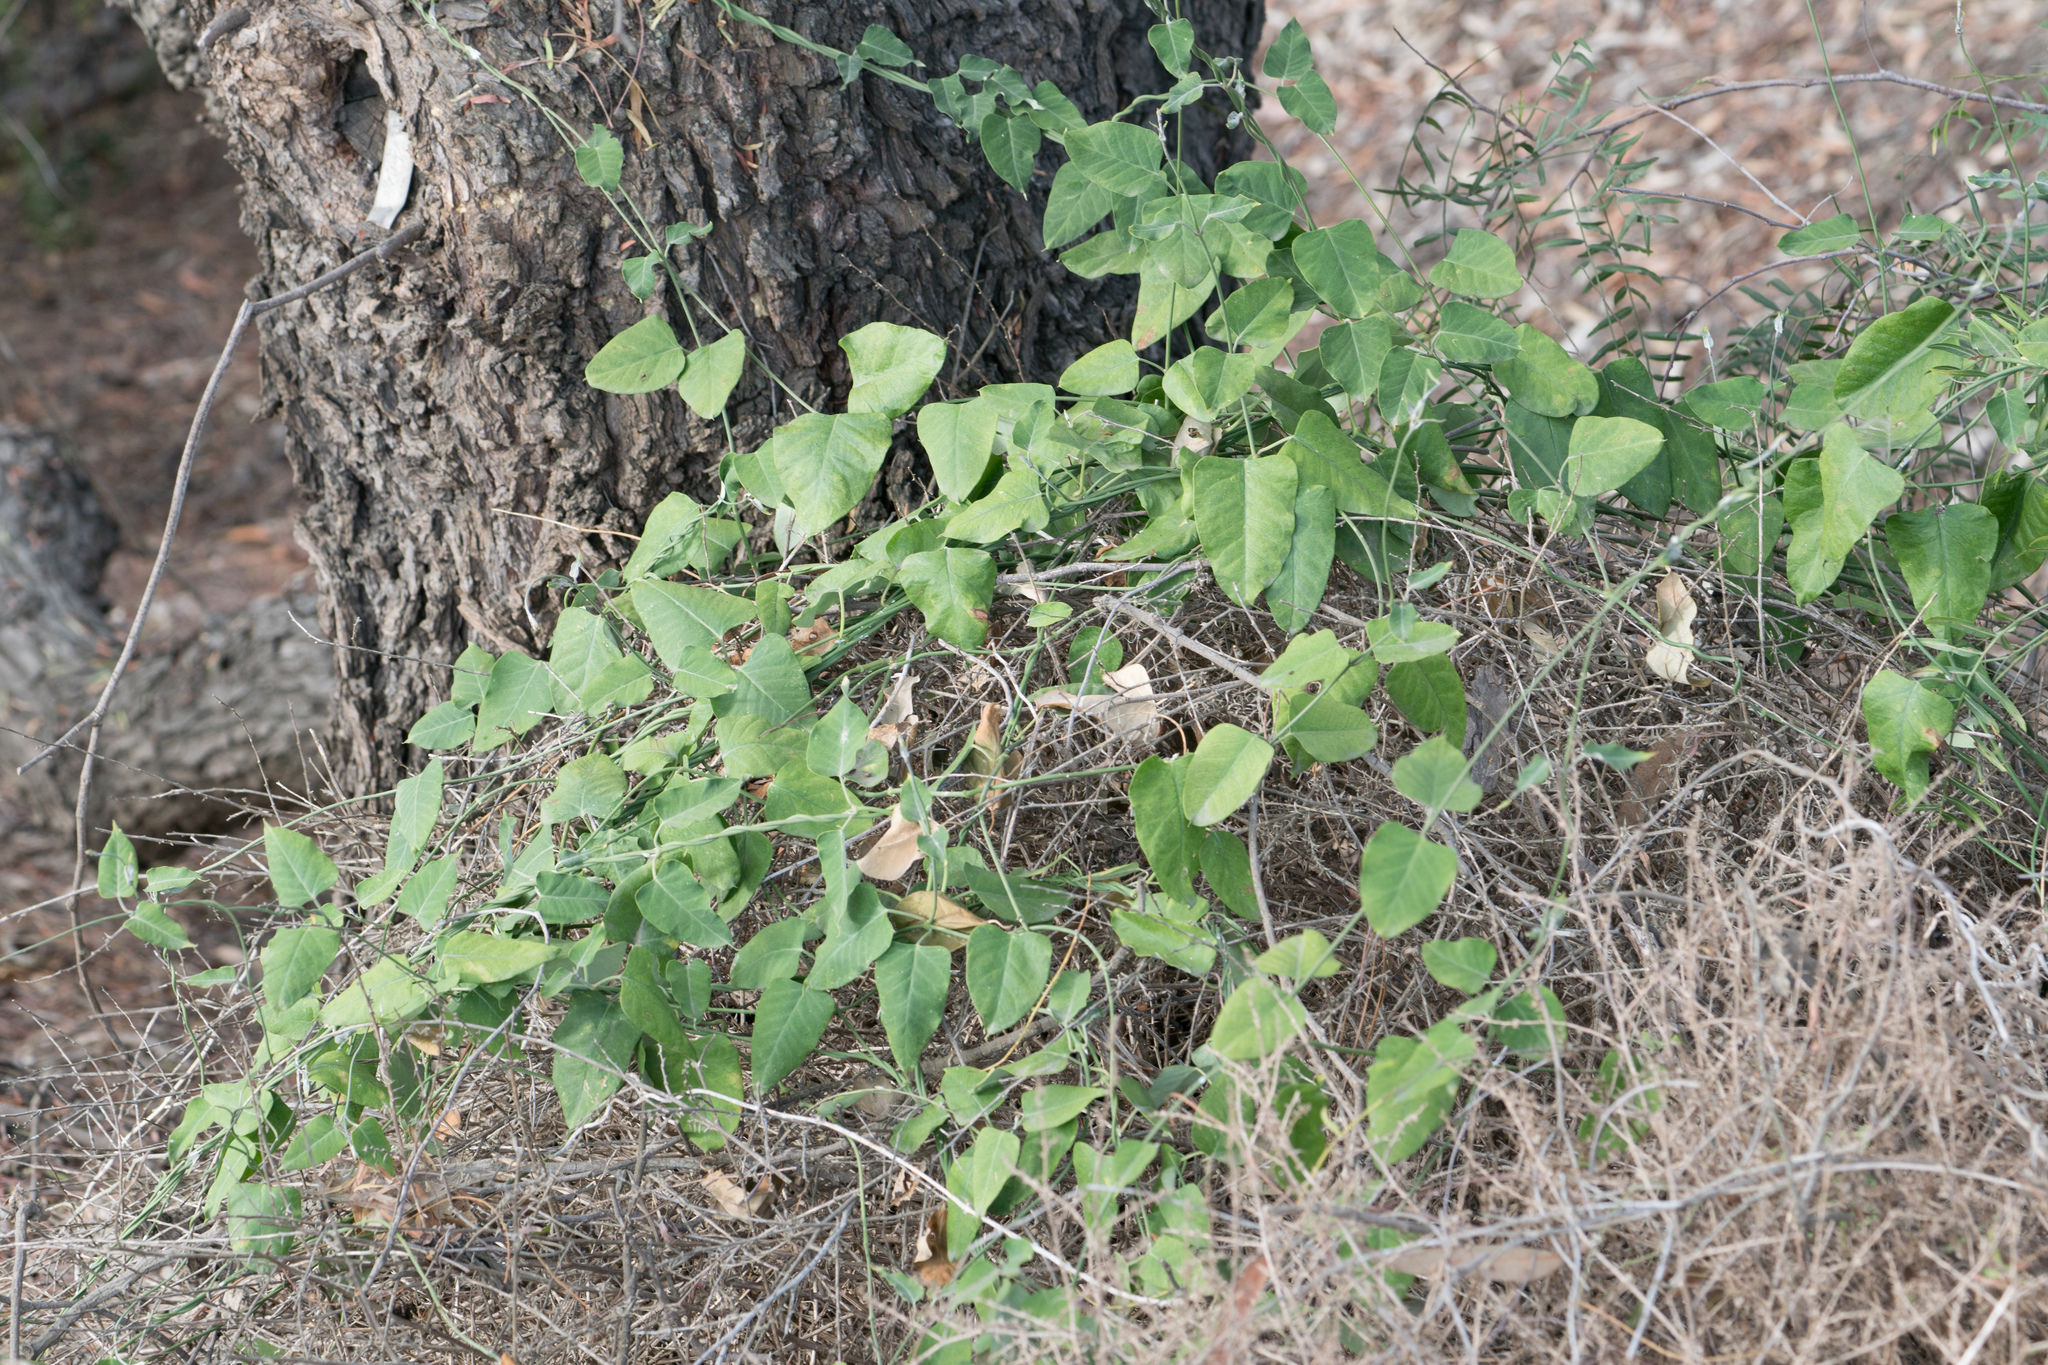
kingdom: Plantae
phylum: Tracheophyta
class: Magnoliopsida
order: Gentianales
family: Apocynaceae
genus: Araujia
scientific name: Araujia sericifera
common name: White bladderflower
